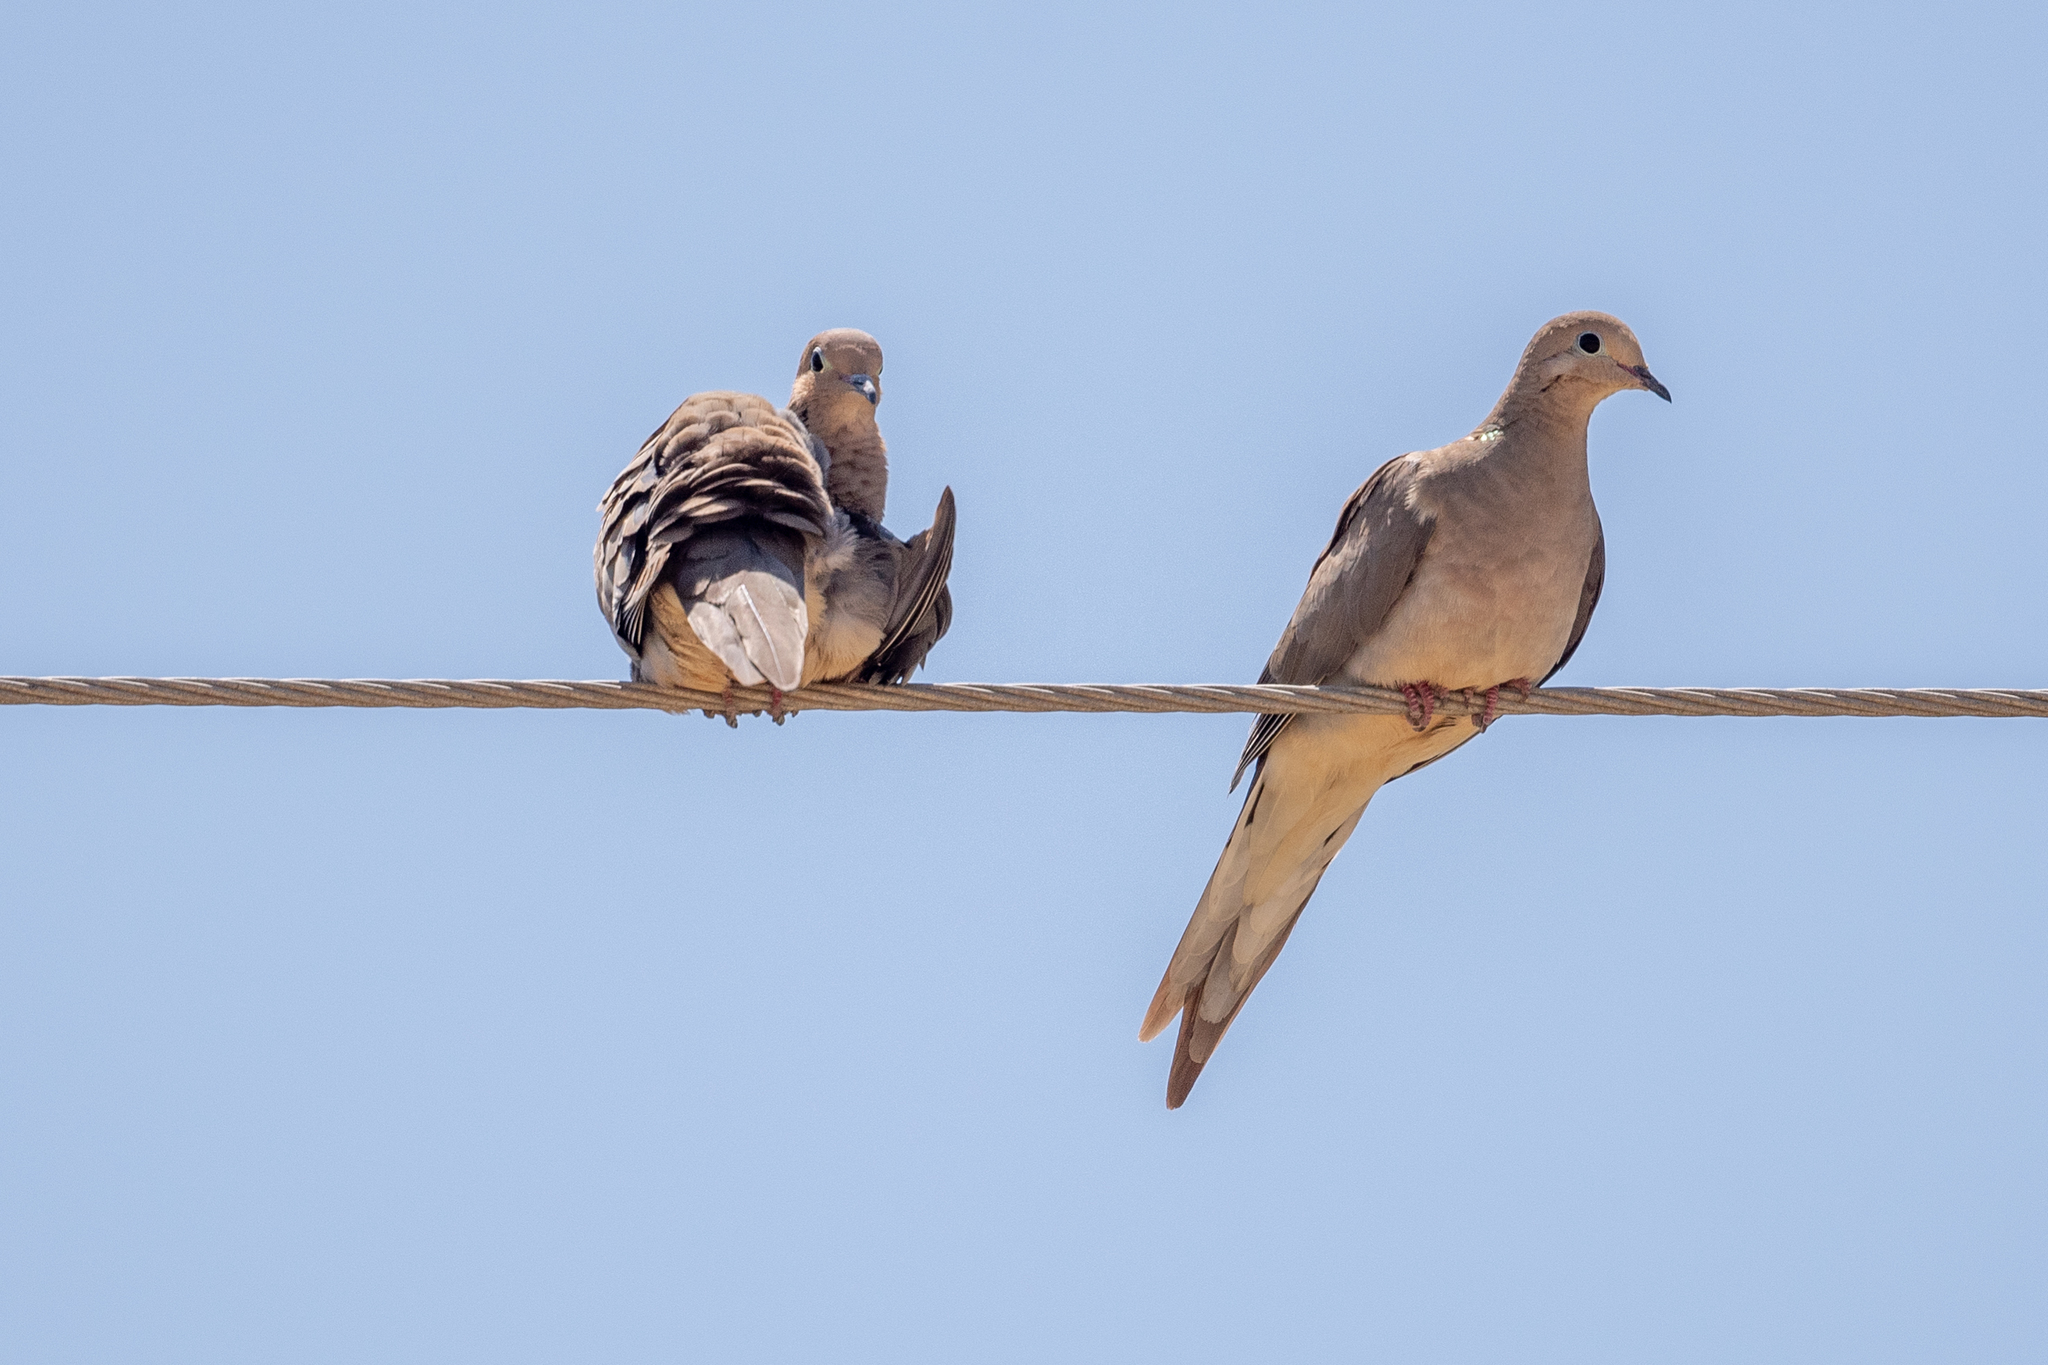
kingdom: Animalia
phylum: Chordata
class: Aves
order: Columbiformes
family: Columbidae
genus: Zenaida
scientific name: Zenaida macroura
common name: Mourning dove
